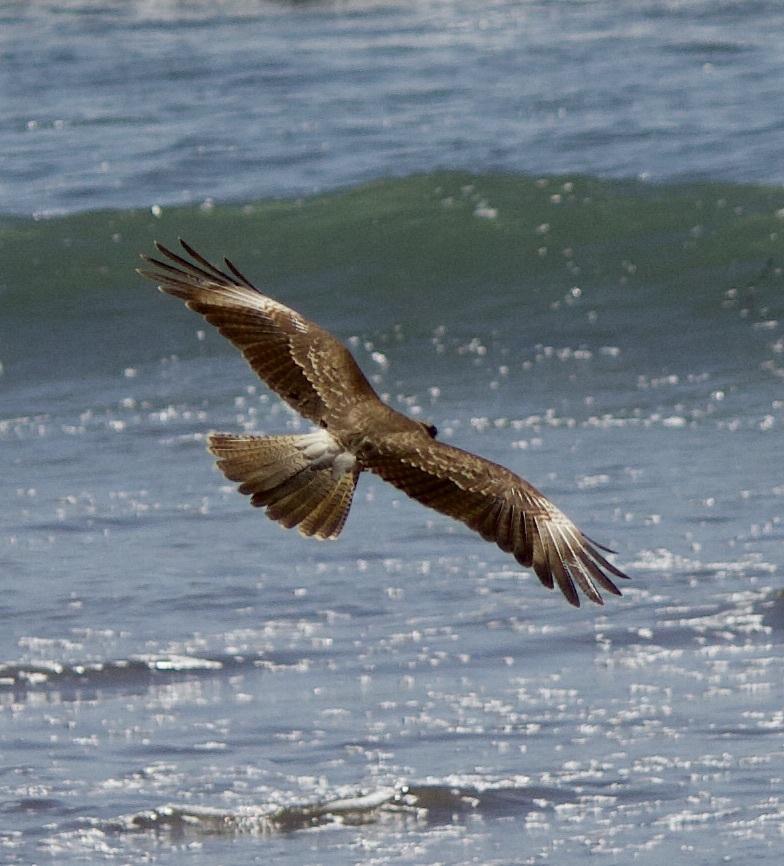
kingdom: Animalia
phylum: Chordata
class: Aves
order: Falconiformes
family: Falconidae
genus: Daptrius
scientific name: Daptrius
